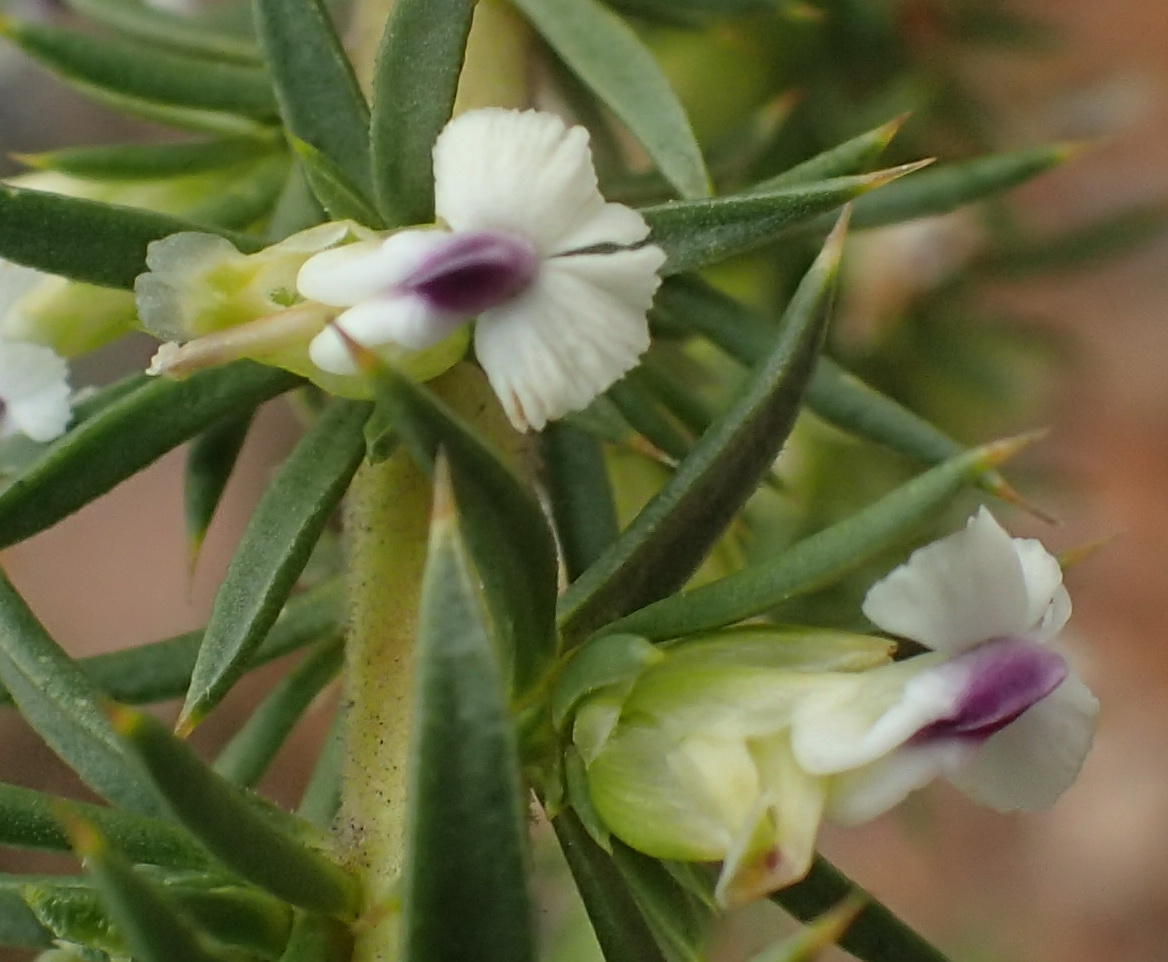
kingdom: Plantae
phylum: Tracheophyta
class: Magnoliopsida
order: Fabales
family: Polygalaceae
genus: Muraltia
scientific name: Muraltia ericifolia
